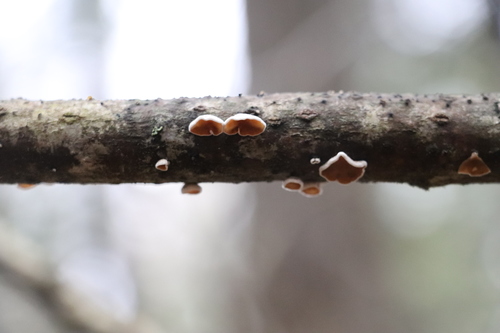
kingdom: Fungi
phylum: Basidiomycota
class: Agaricomycetes
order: Agaricales
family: Schizophyllaceae
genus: Schizophyllum
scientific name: Schizophyllum amplum
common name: Poplar bells
